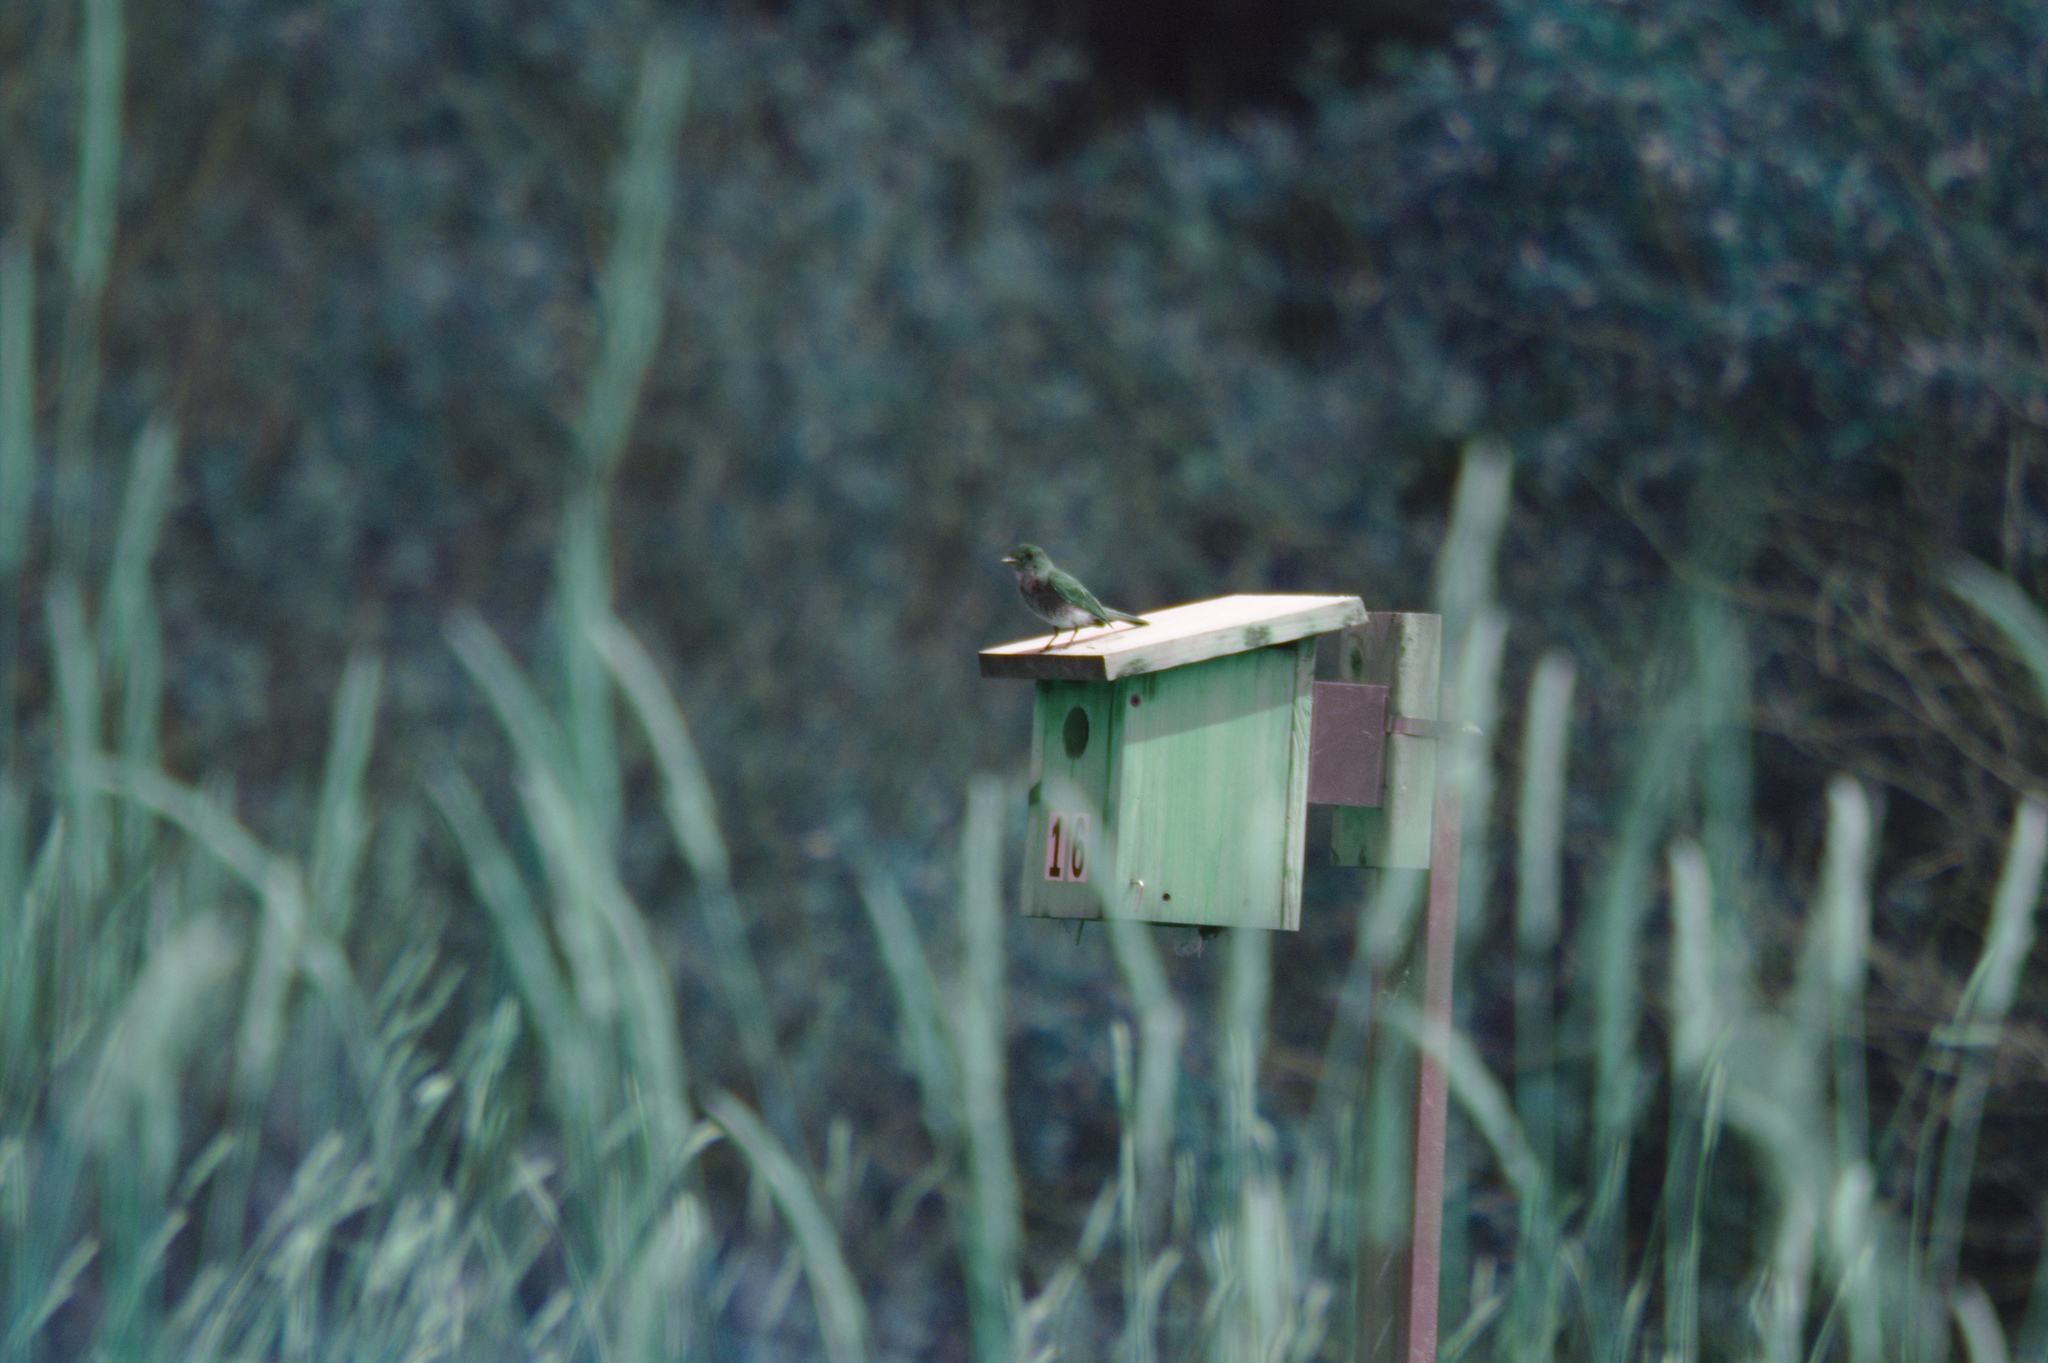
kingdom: Animalia
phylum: Chordata
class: Aves
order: Passeriformes
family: Tyrannidae
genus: Sayornis
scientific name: Sayornis phoebe
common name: Eastern phoebe
